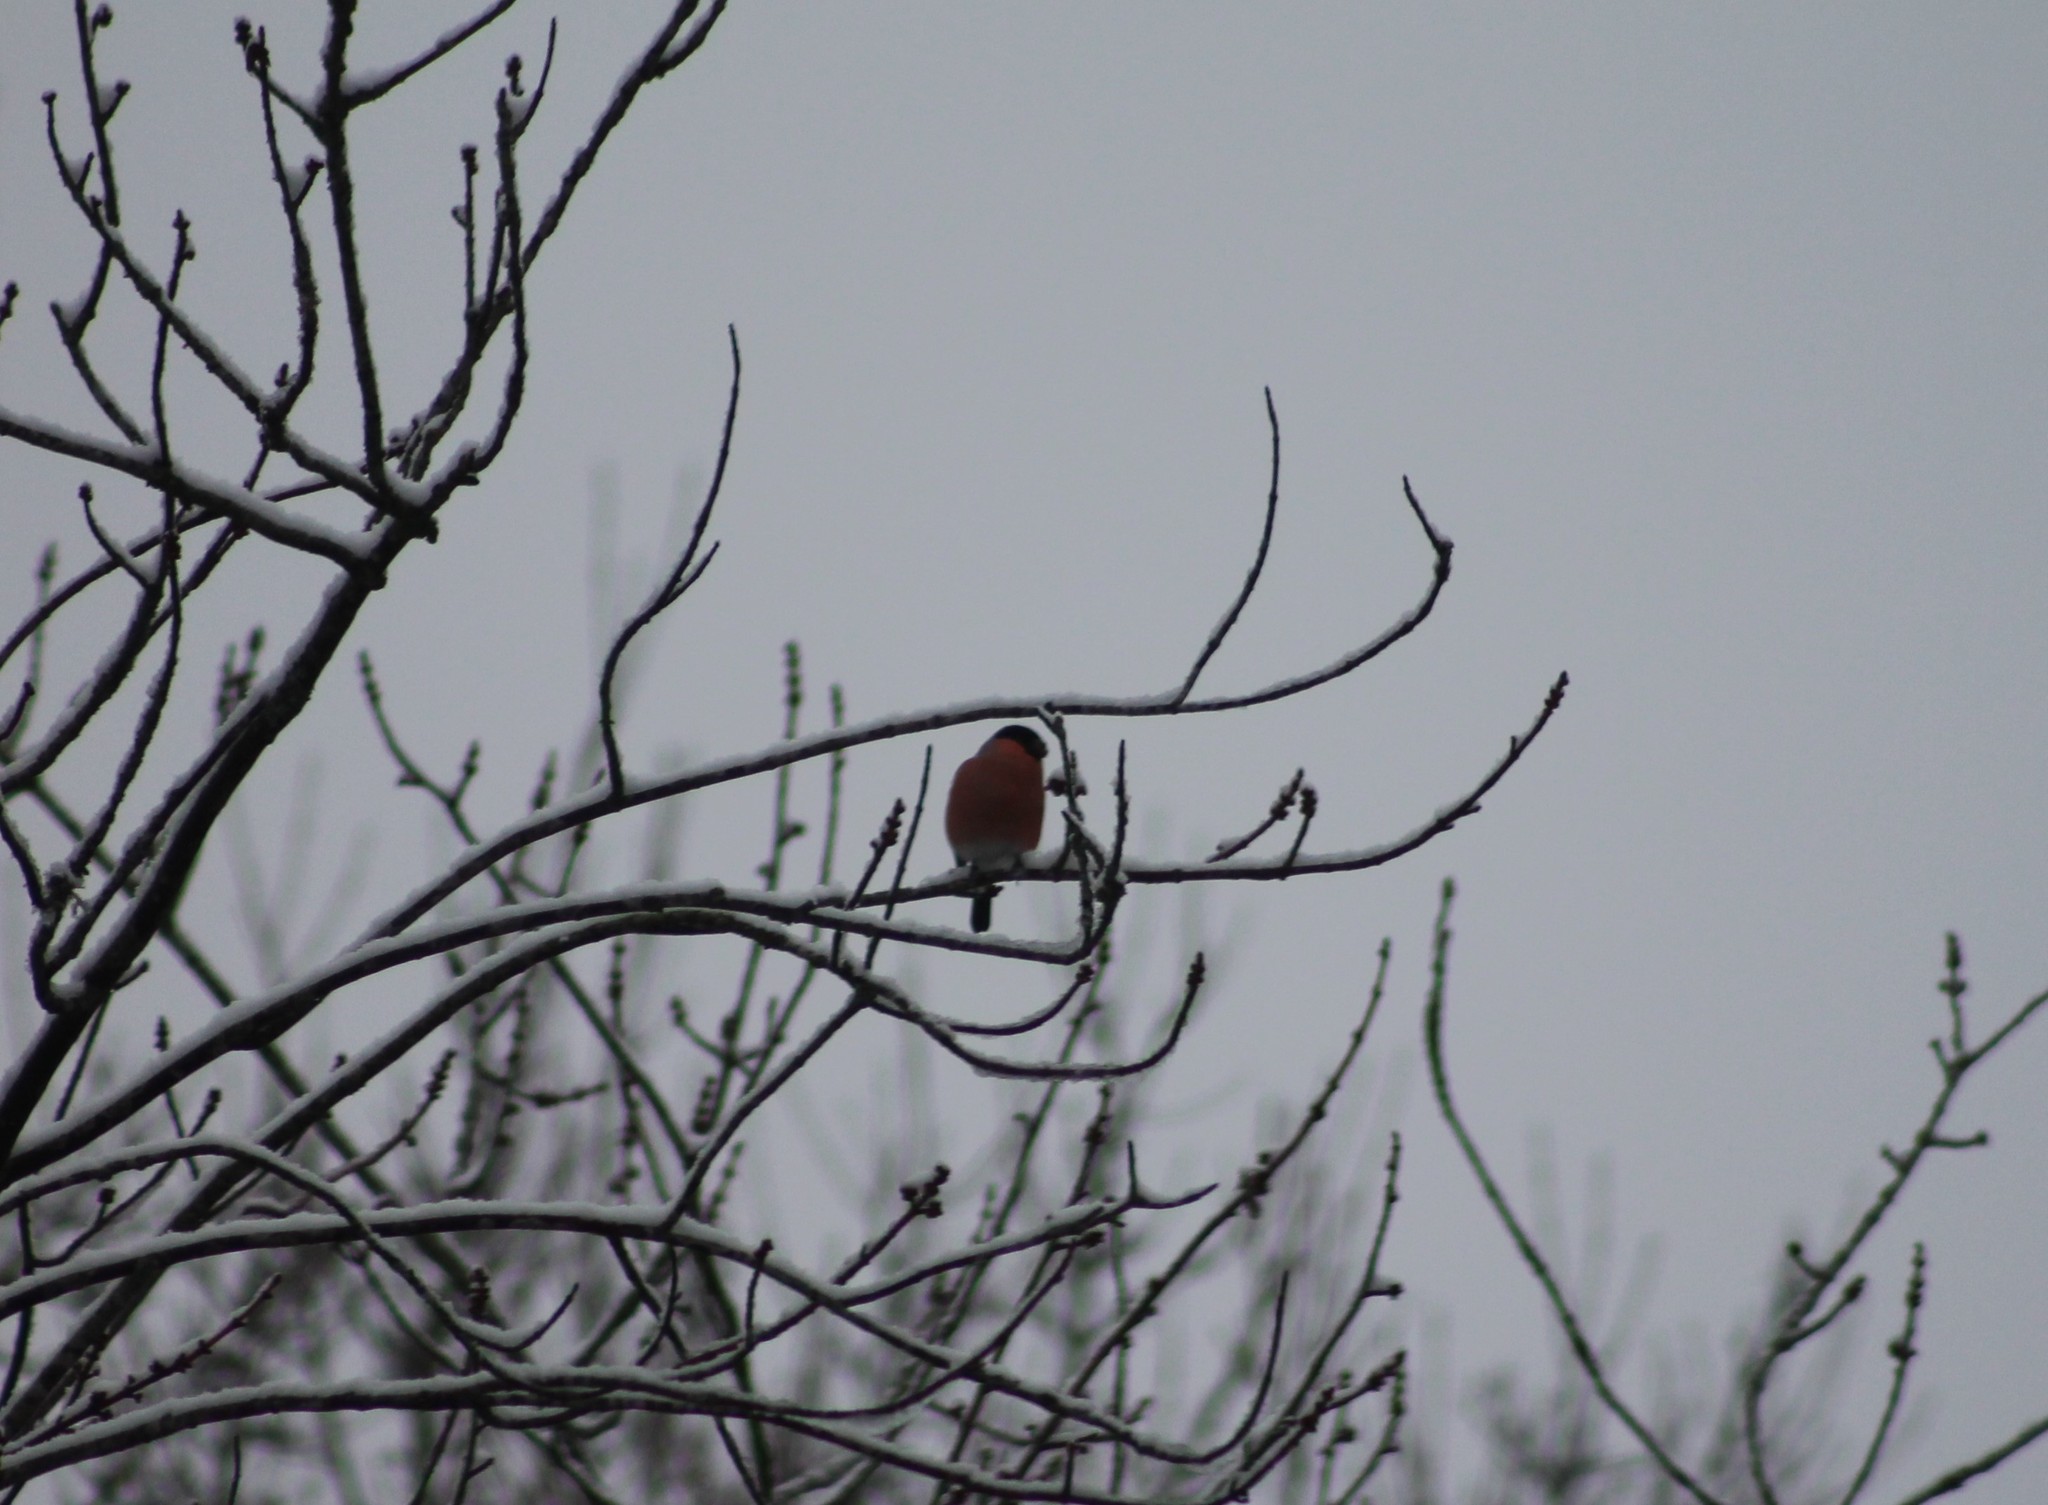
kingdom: Animalia
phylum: Chordata
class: Aves
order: Passeriformes
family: Fringillidae
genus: Pyrrhula
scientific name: Pyrrhula pyrrhula
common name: Eurasian bullfinch
